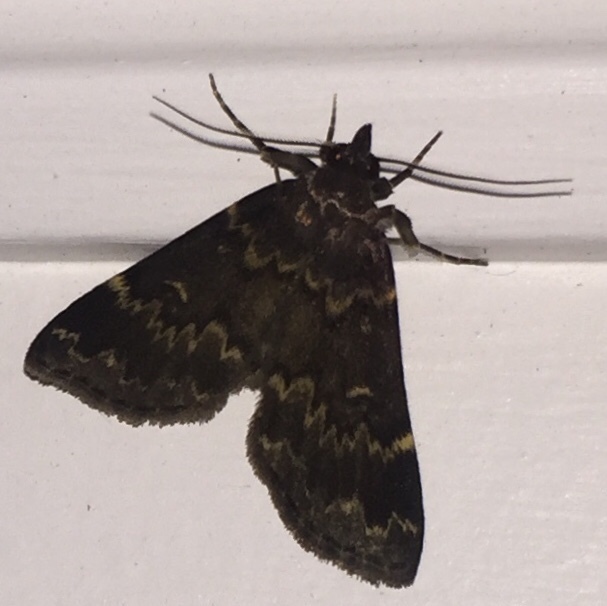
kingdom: Animalia
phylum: Arthropoda
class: Insecta
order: Lepidoptera
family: Erebidae
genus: Idia
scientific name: Idia lubricalis
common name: Twin-striped tabby
